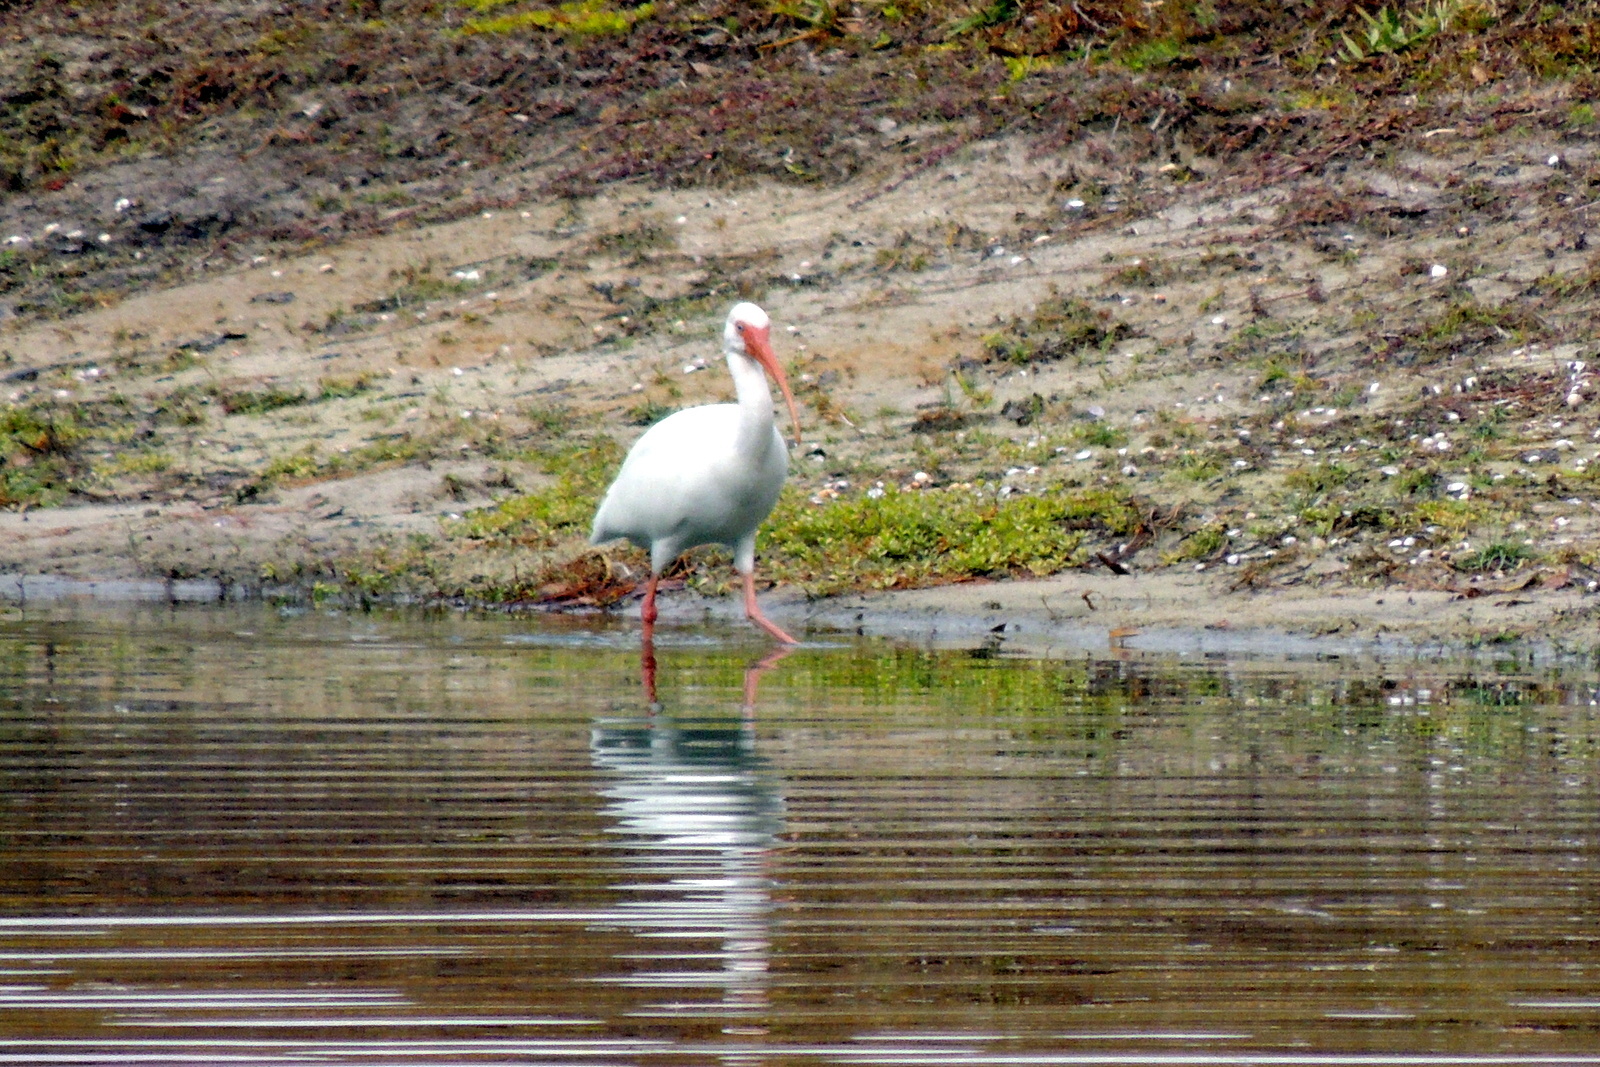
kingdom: Animalia
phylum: Chordata
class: Aves
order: Pelecaniformes
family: Threskiornithidae
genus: Eudocimus
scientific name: Eudocimus albus
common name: White ibis
